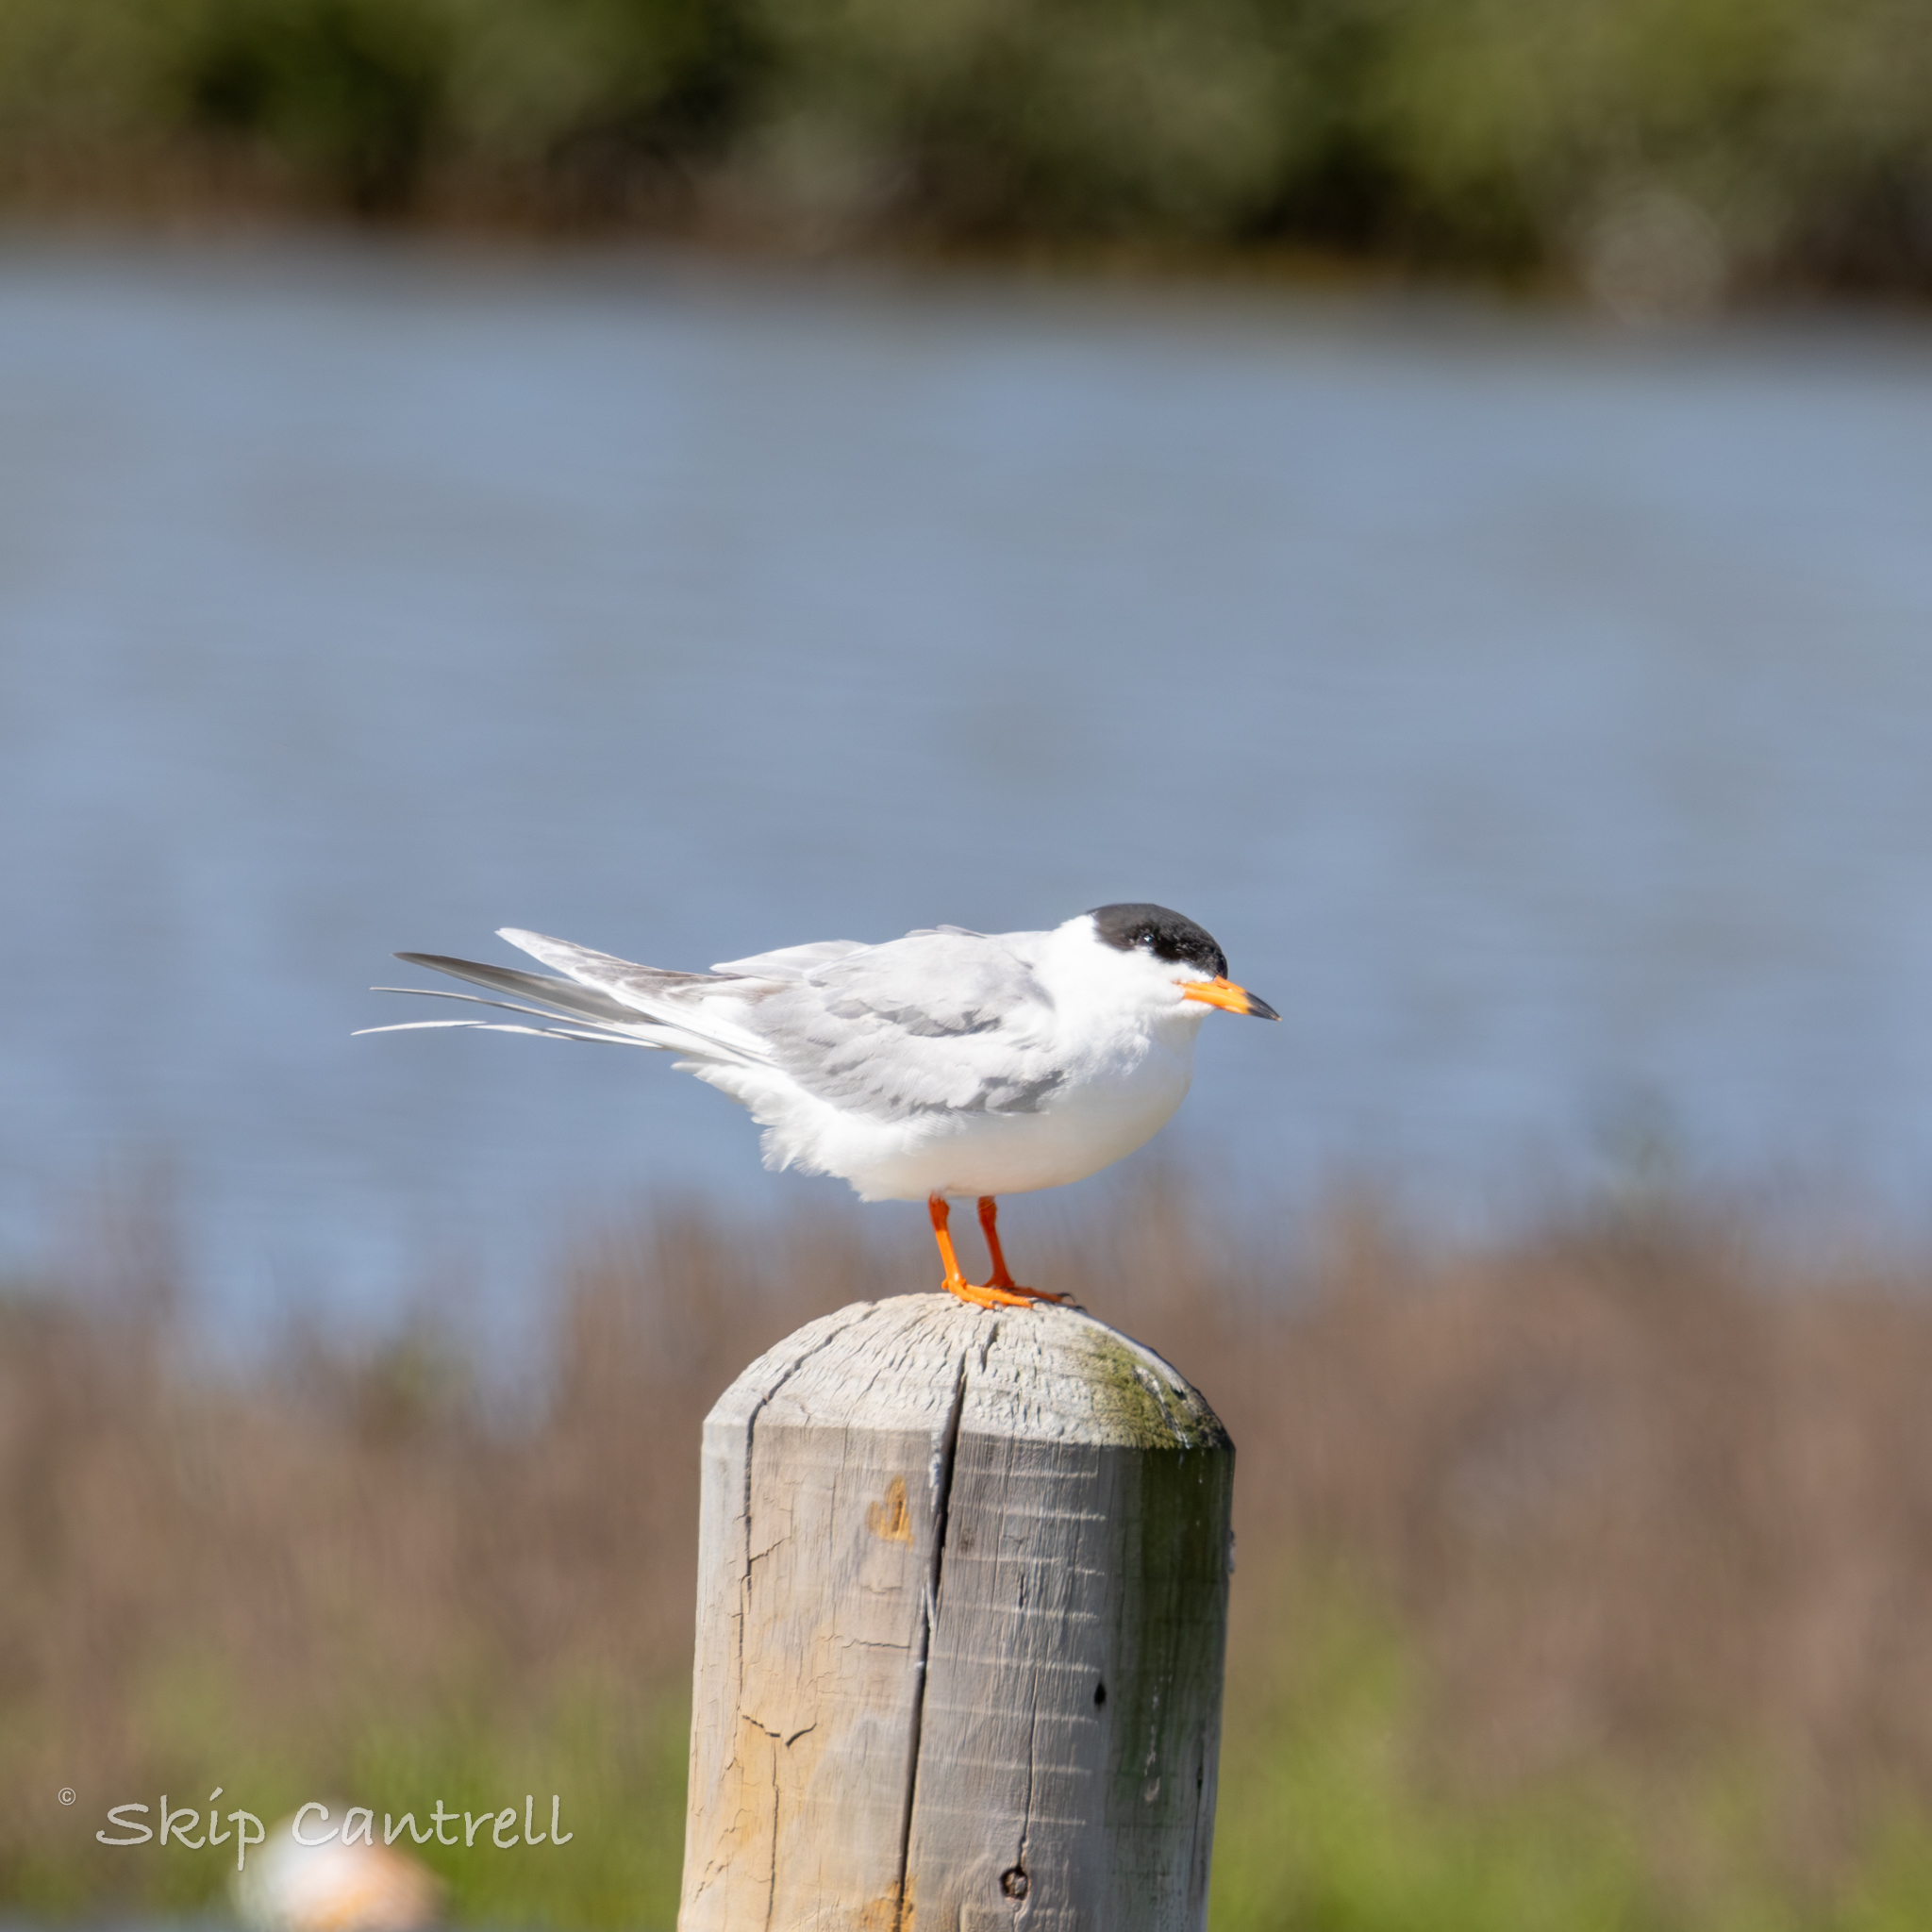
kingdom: Animalia
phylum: Chordata
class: Aves
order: Charadriiformes
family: Laridae
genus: Sterna
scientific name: Sterna forsteri
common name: Forster's tern
